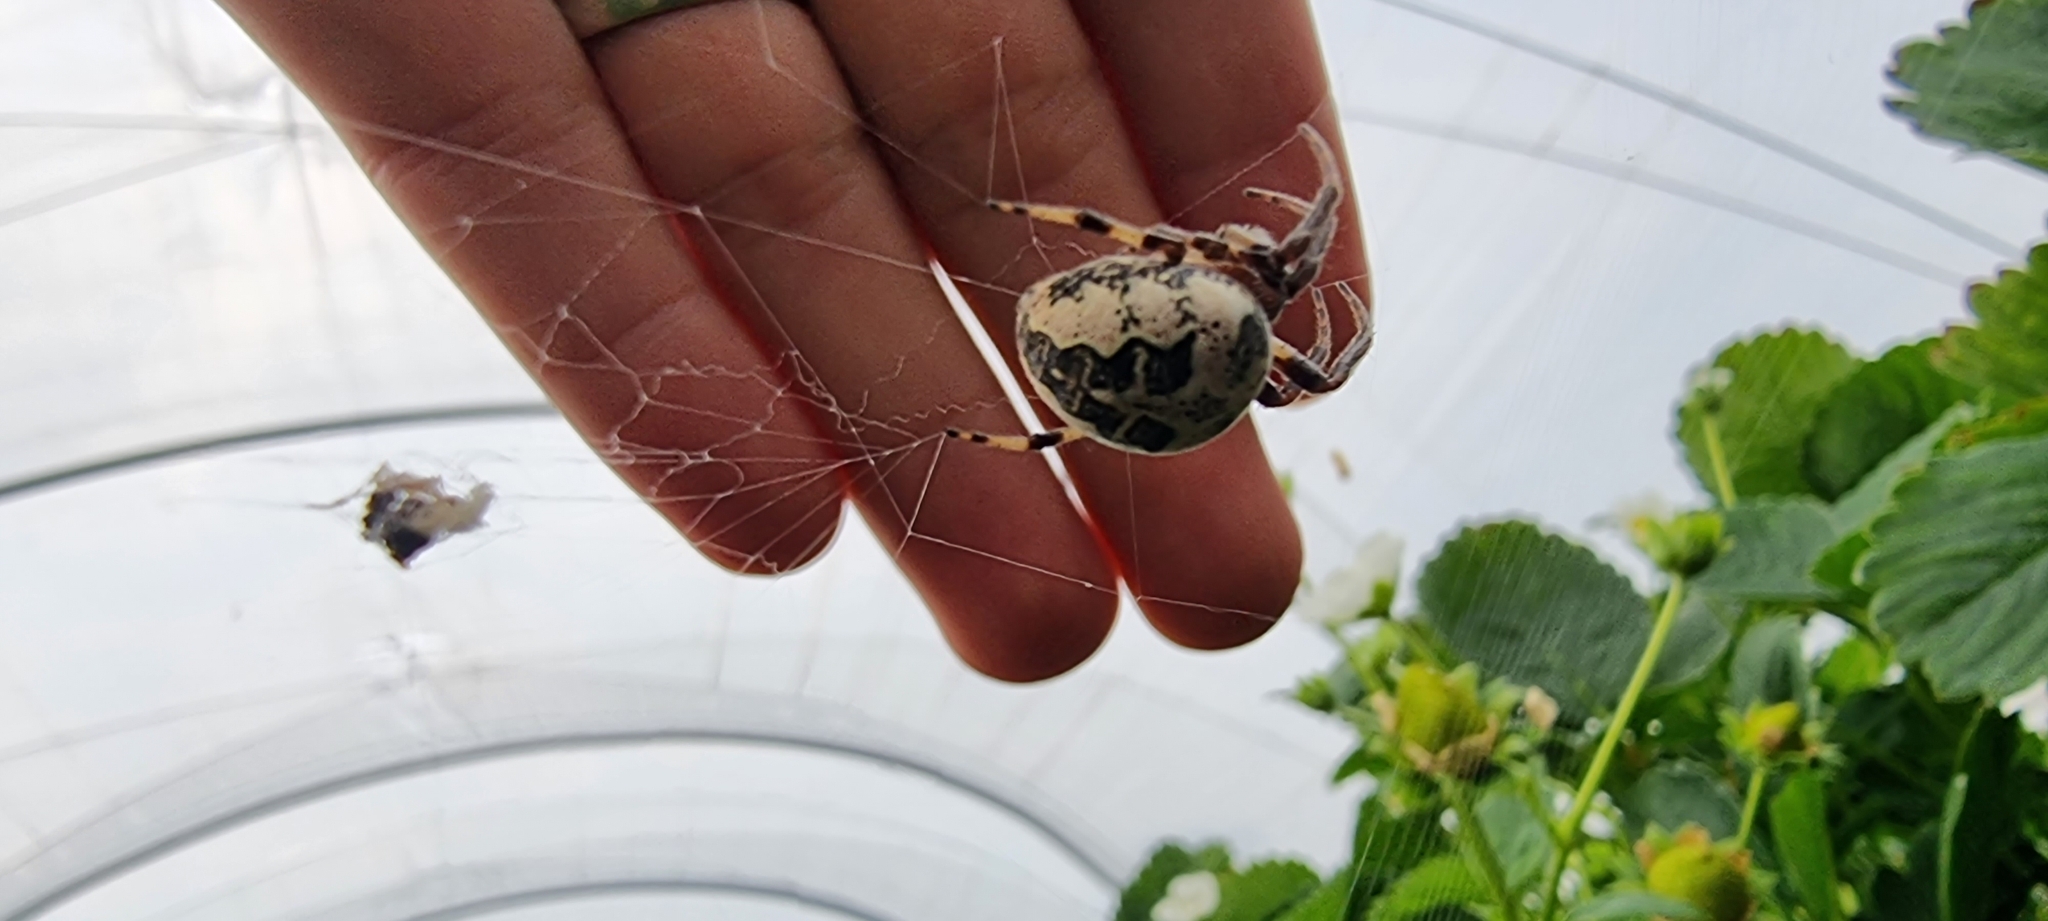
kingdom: Animalia
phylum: Arthropoda
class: Arachnida
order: Araneae
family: Araneidae
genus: Larinioides
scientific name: Larinioides cornutus
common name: Furrow orbweaver
